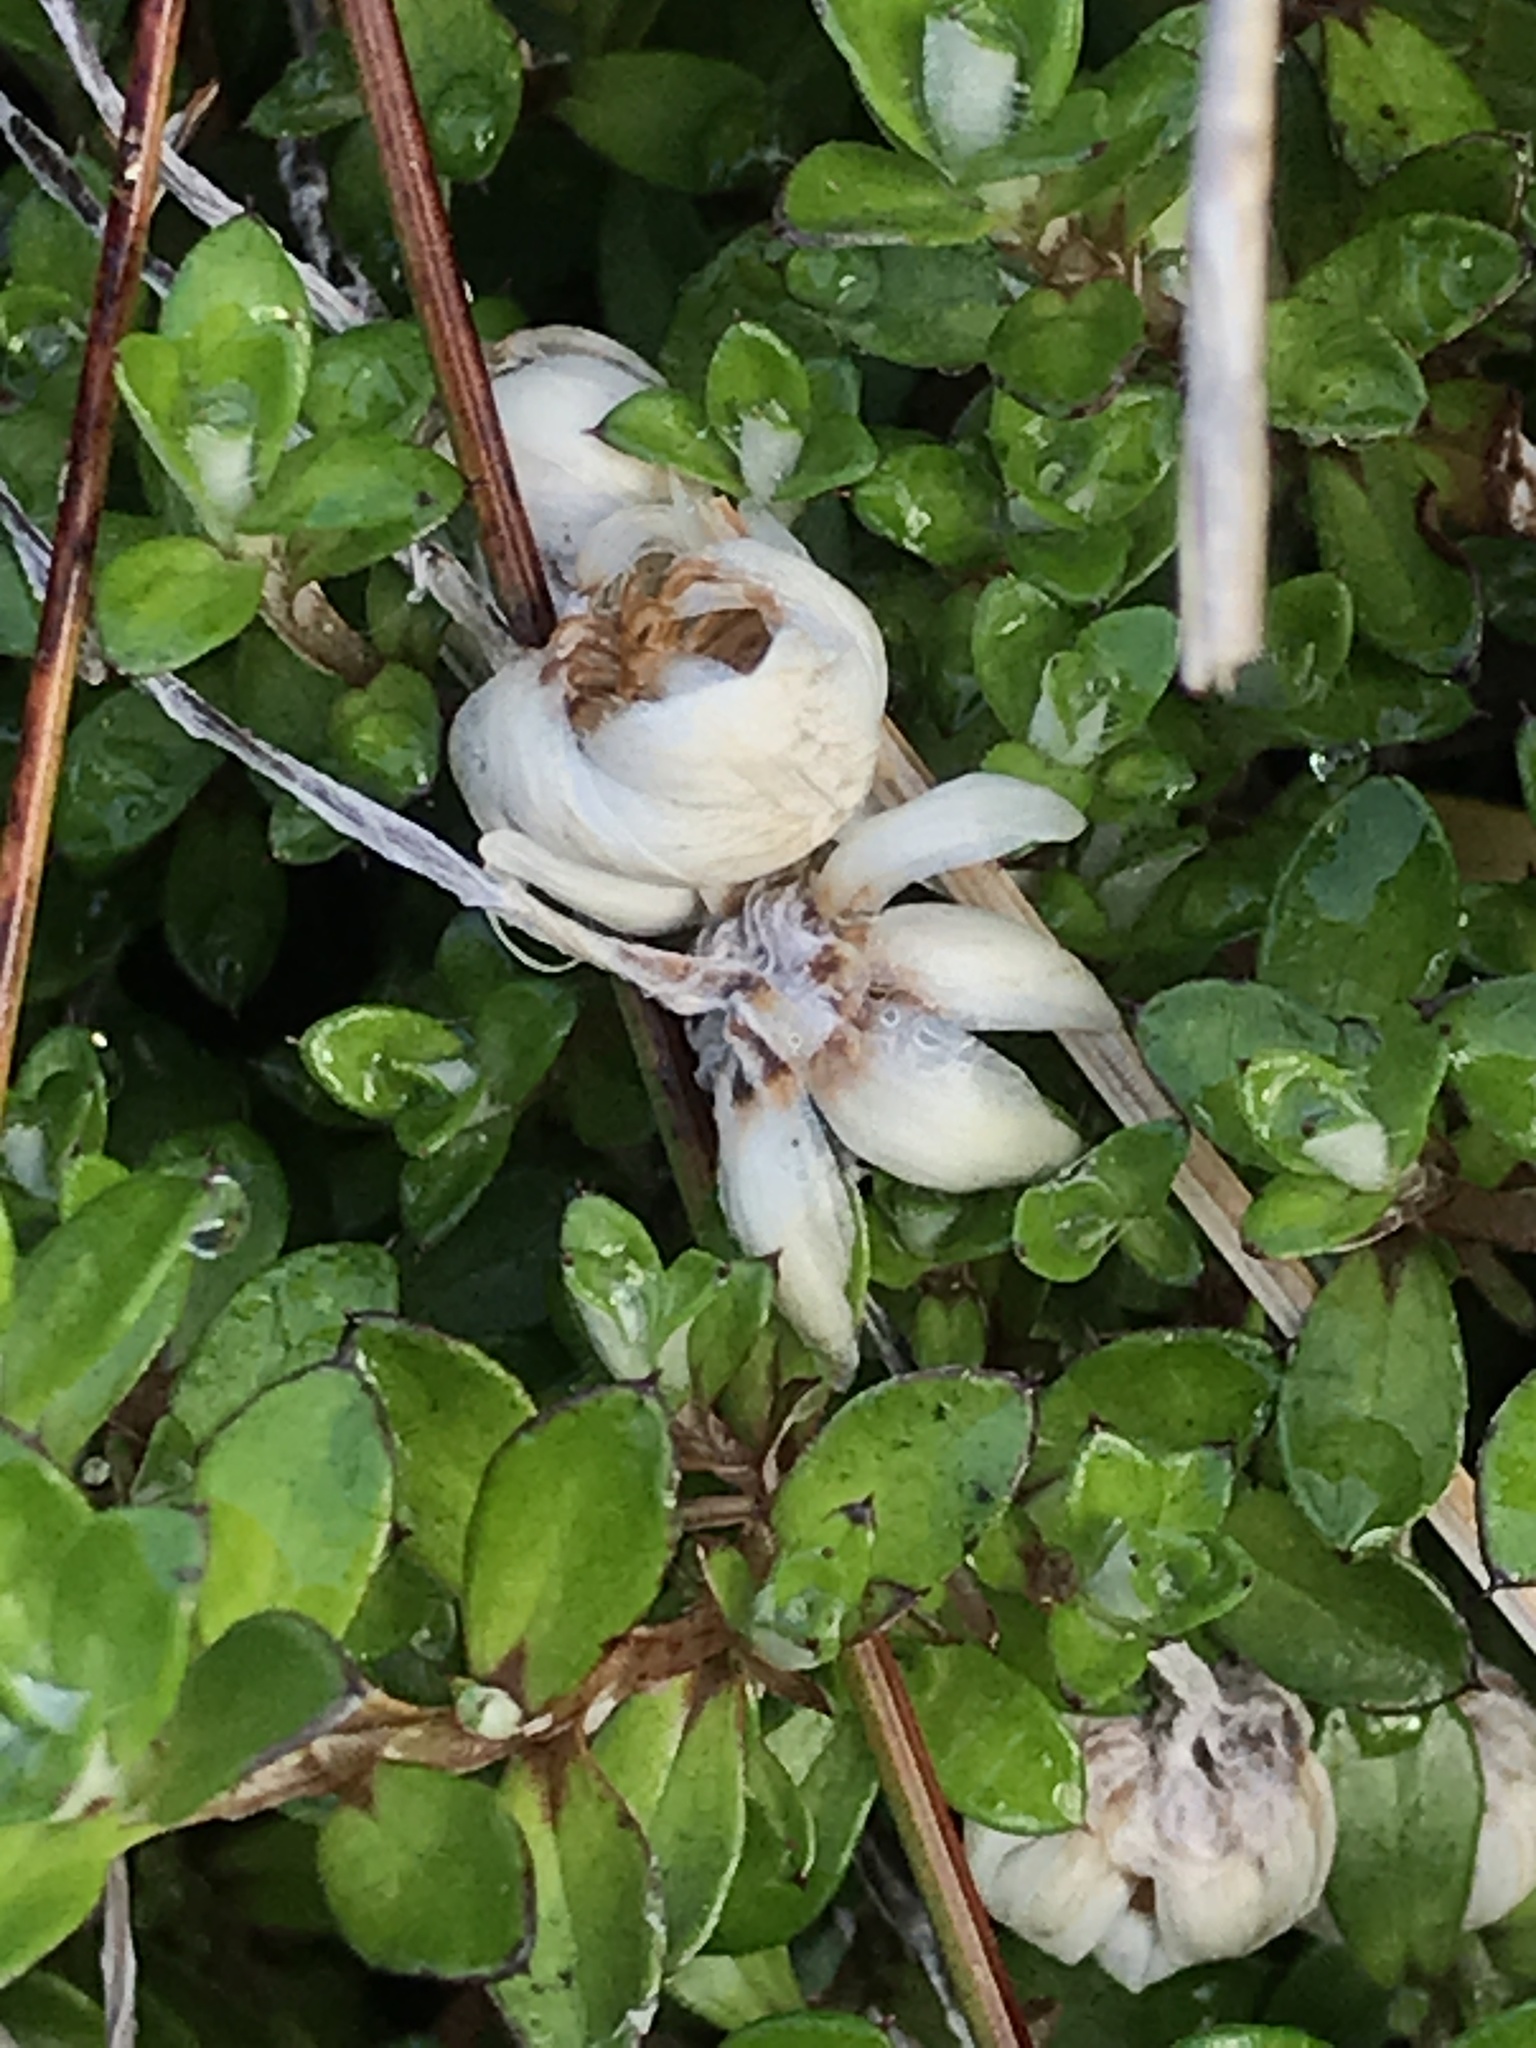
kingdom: Plantae
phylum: Tracheophyta
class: Magnoliopsida
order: Asterales
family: Asteraceae
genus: Anaphalioides
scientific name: Anaphalioides bellidioides
